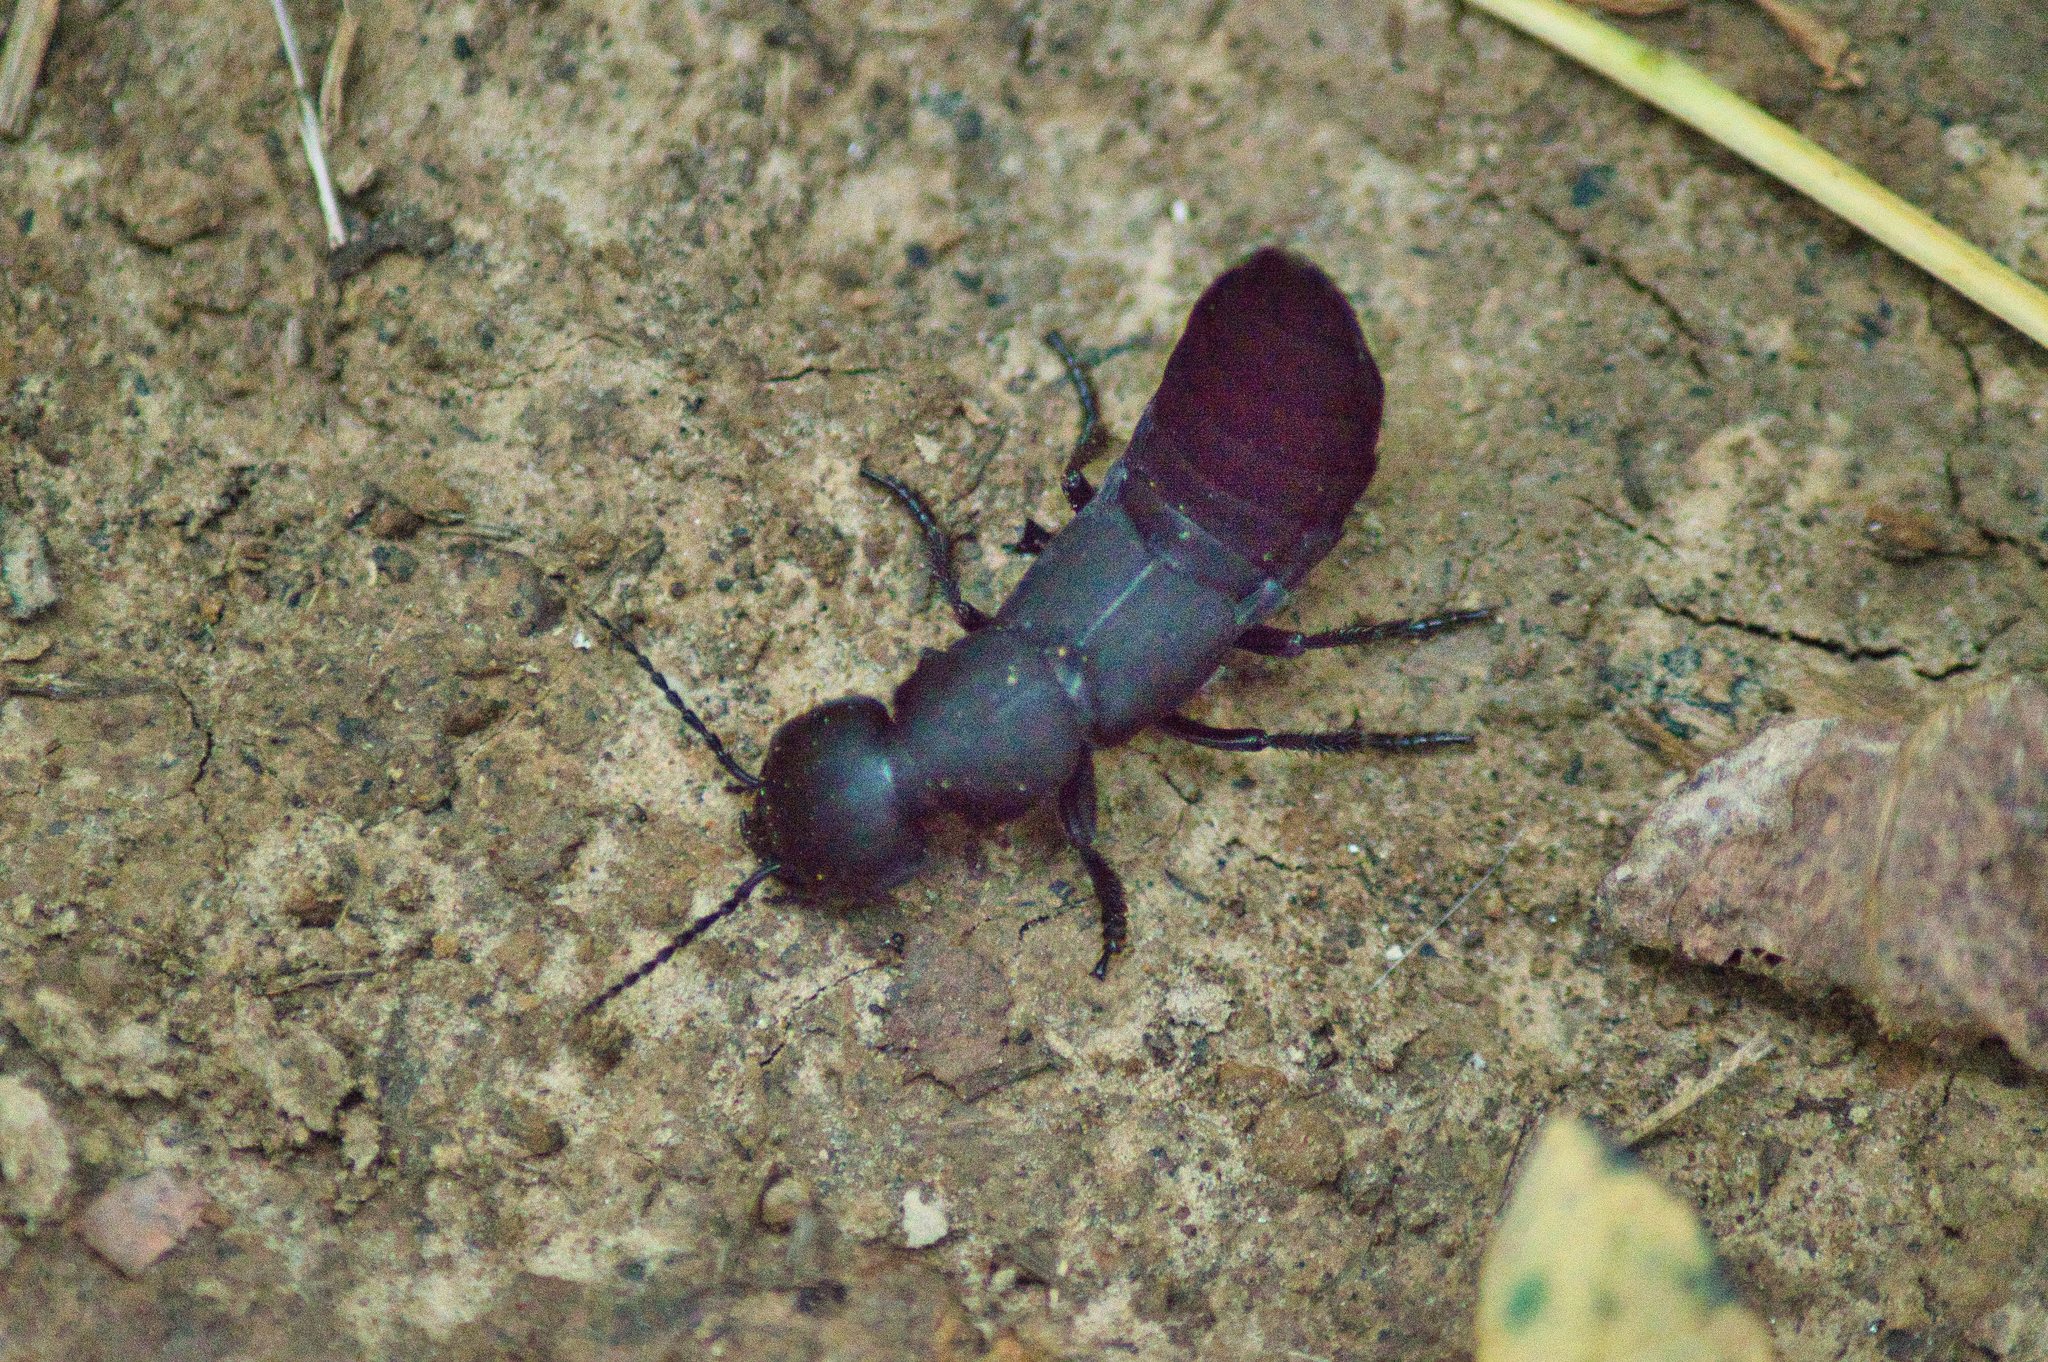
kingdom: Animalia
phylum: Arthropoda
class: Insecta
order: Coleoptera
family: Staphylinidae
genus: Ocypus
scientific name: Ocypus olens
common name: Devil's coach-horse
